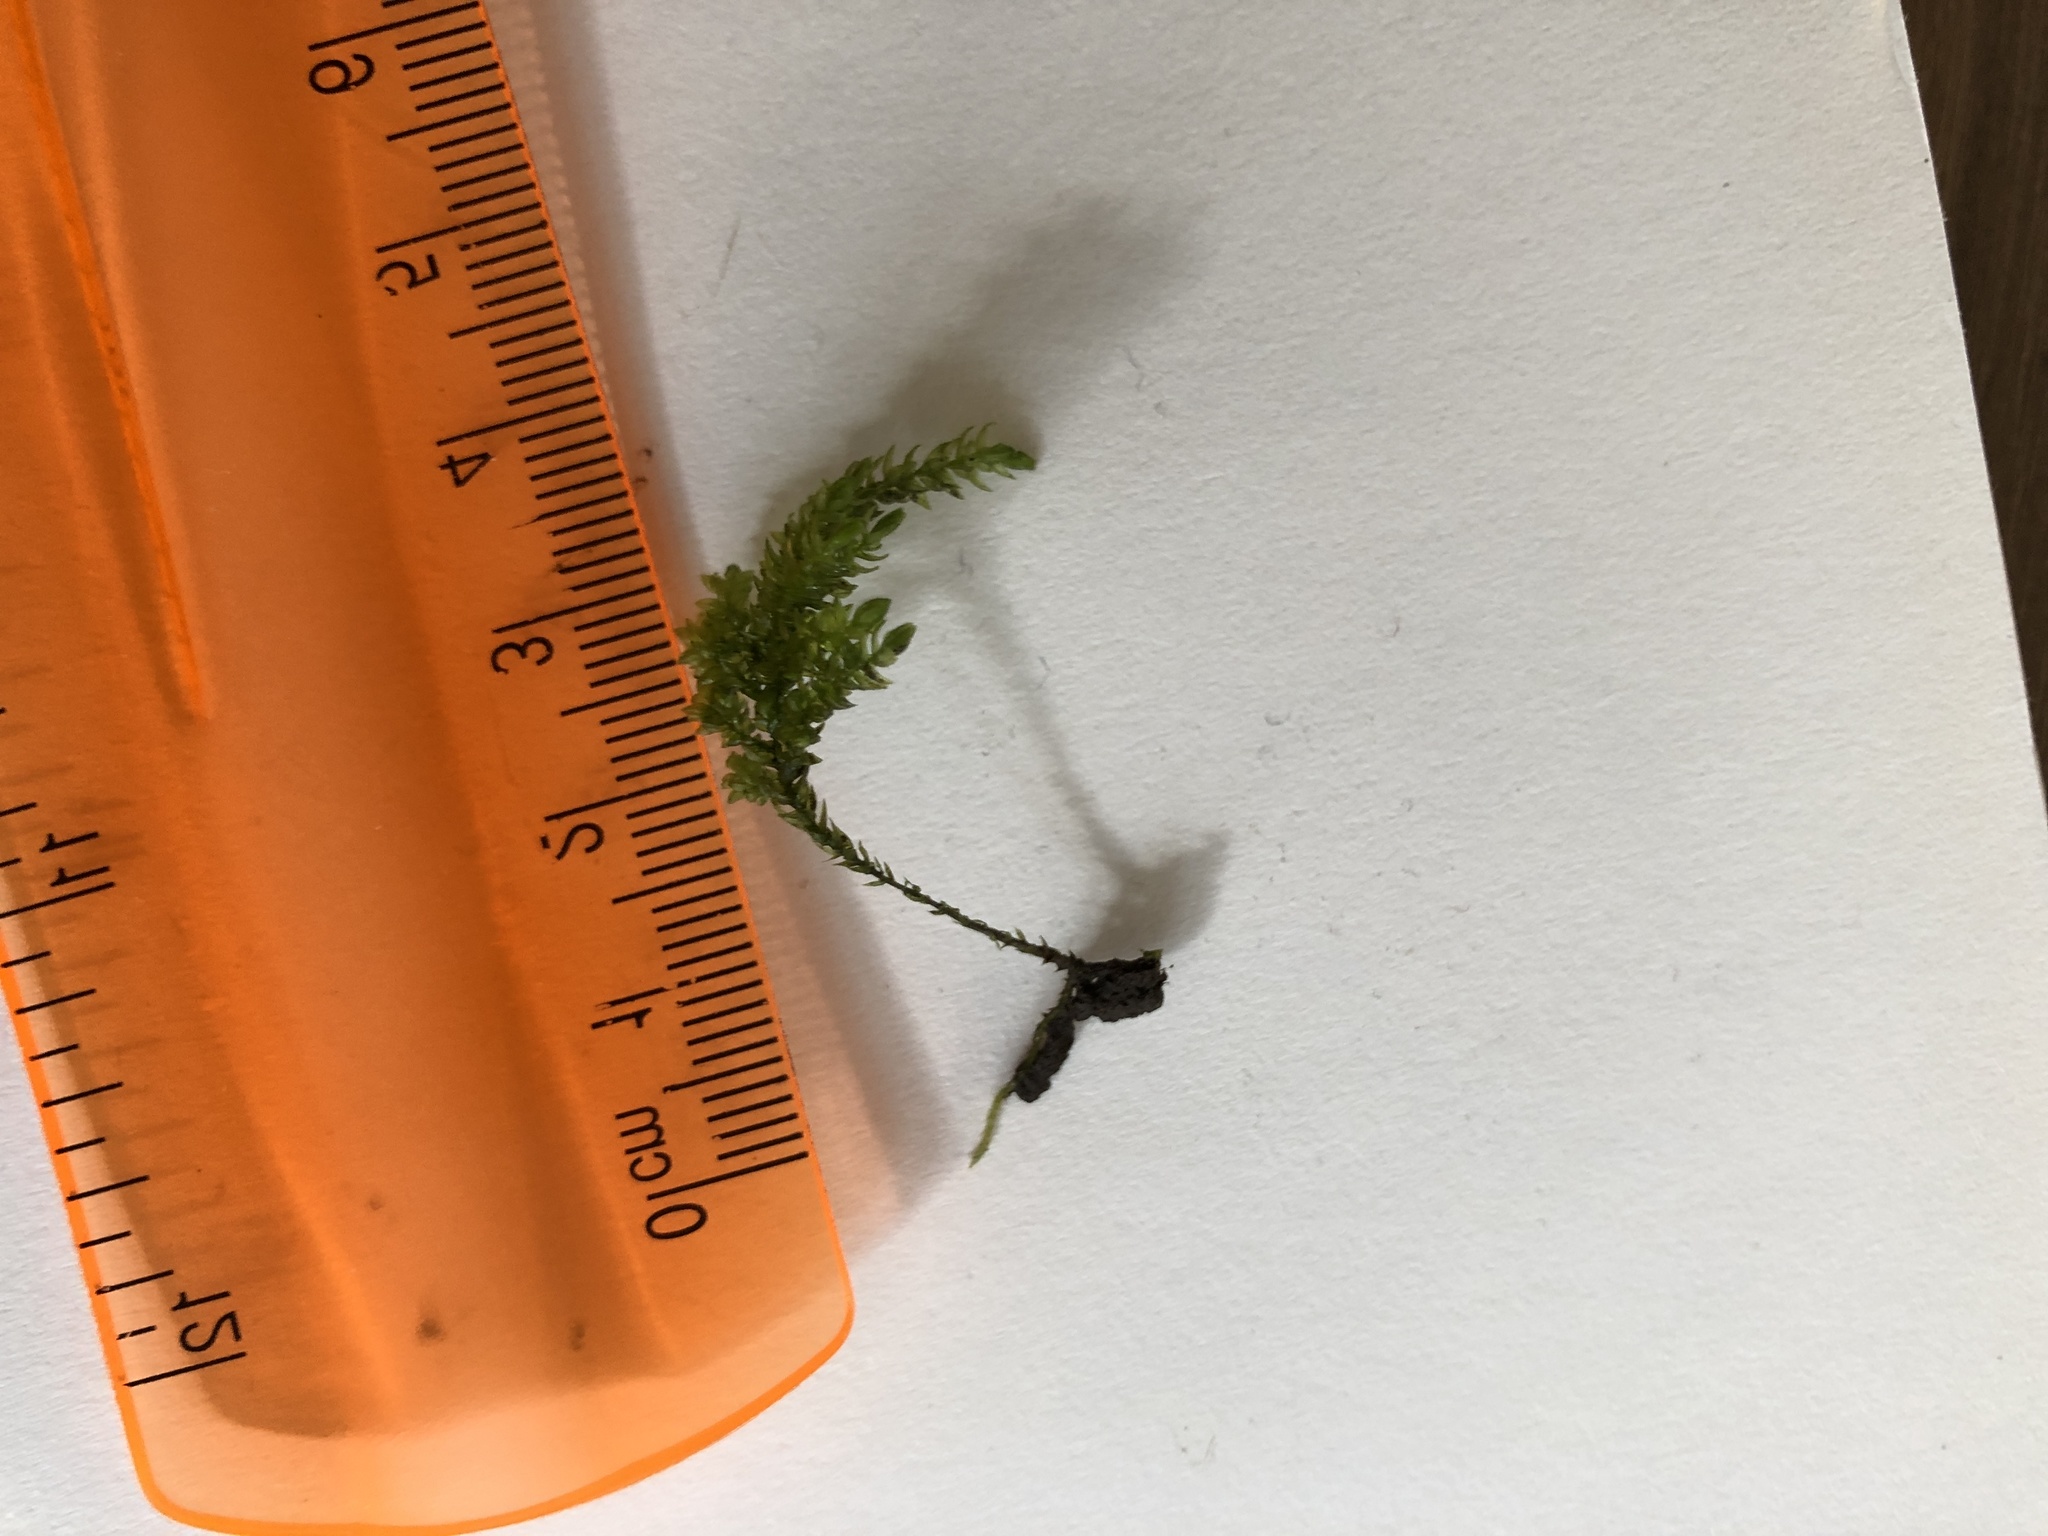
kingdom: Plantae
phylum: Bryophyta
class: Bryopsida
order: Hypnales
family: Neckeraceae
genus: Thamnobryum
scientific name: Thamnobryum alopecurum
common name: Fox-tail feather-moss
